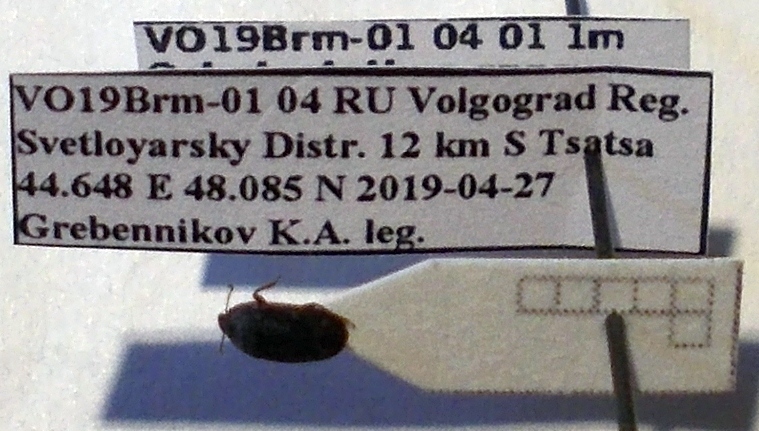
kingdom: Animalia
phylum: Arthropoda
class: Insecta
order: Hemiptera
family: Cydnidae
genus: Ochetostethus
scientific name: Ochetostethus opacus
